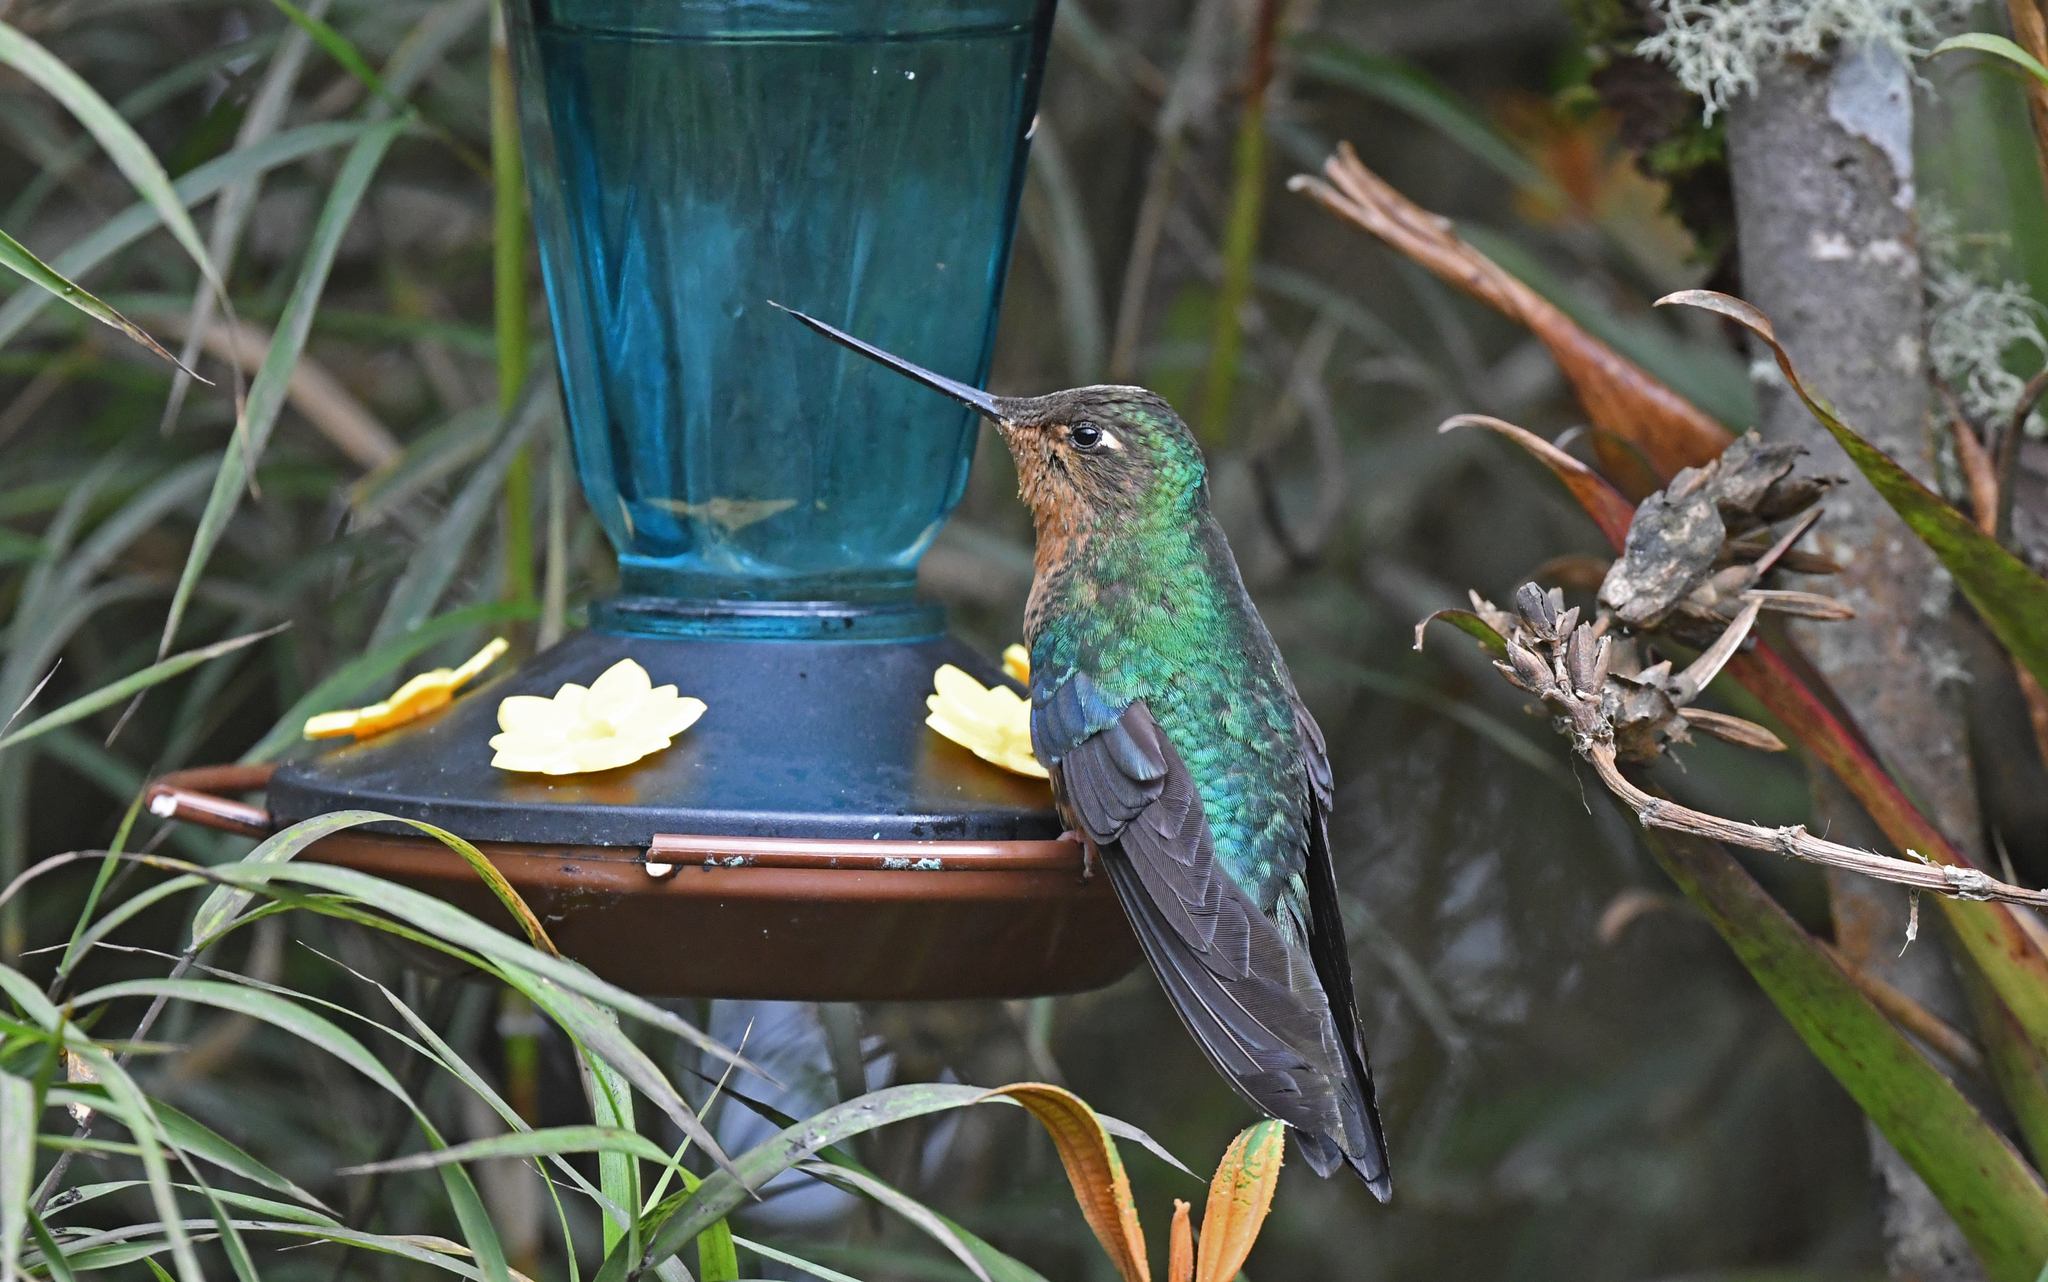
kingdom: Animalia
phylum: Chordata
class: Aves
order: Apodiformes
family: Trochilidae
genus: Pterophanes
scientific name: Pterophanes cyanopterus
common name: Great sapphirewing
